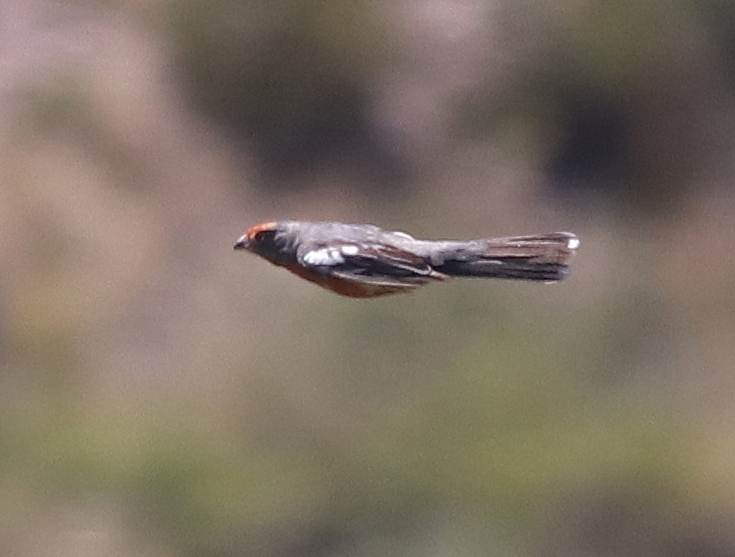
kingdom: Animalia
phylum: Chordata
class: Aves
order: Passeriformes
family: Cotingidae
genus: Phytotoma
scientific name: Phytotoma rutila
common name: White-tipped plantcutter
